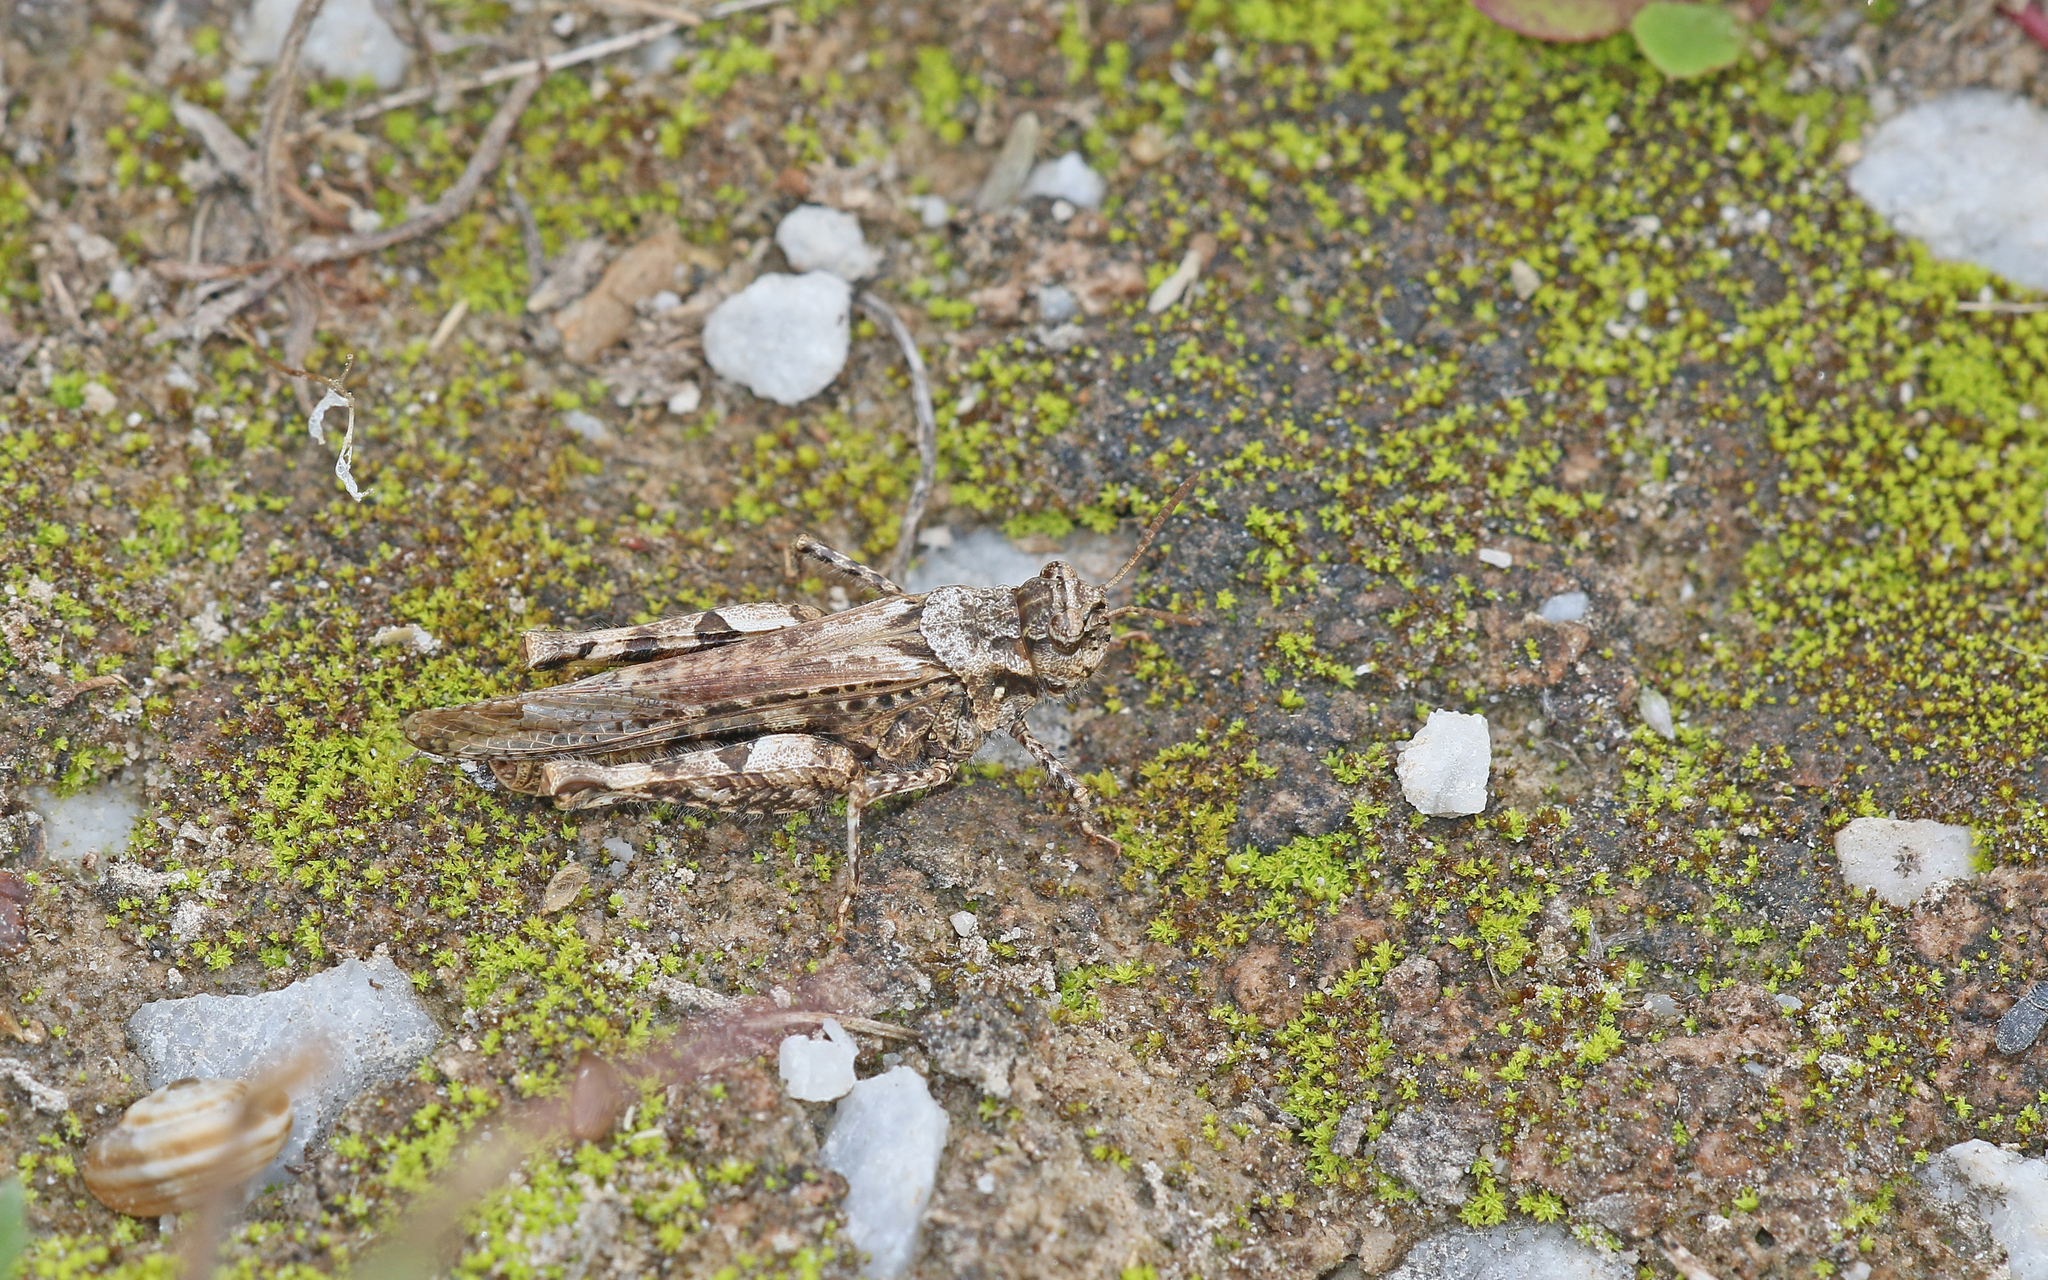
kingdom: Animalia
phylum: Arthropoda
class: Insecta
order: Orthoptera
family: Acrididae
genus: Acrotylus
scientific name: Acrotylus insubricus
